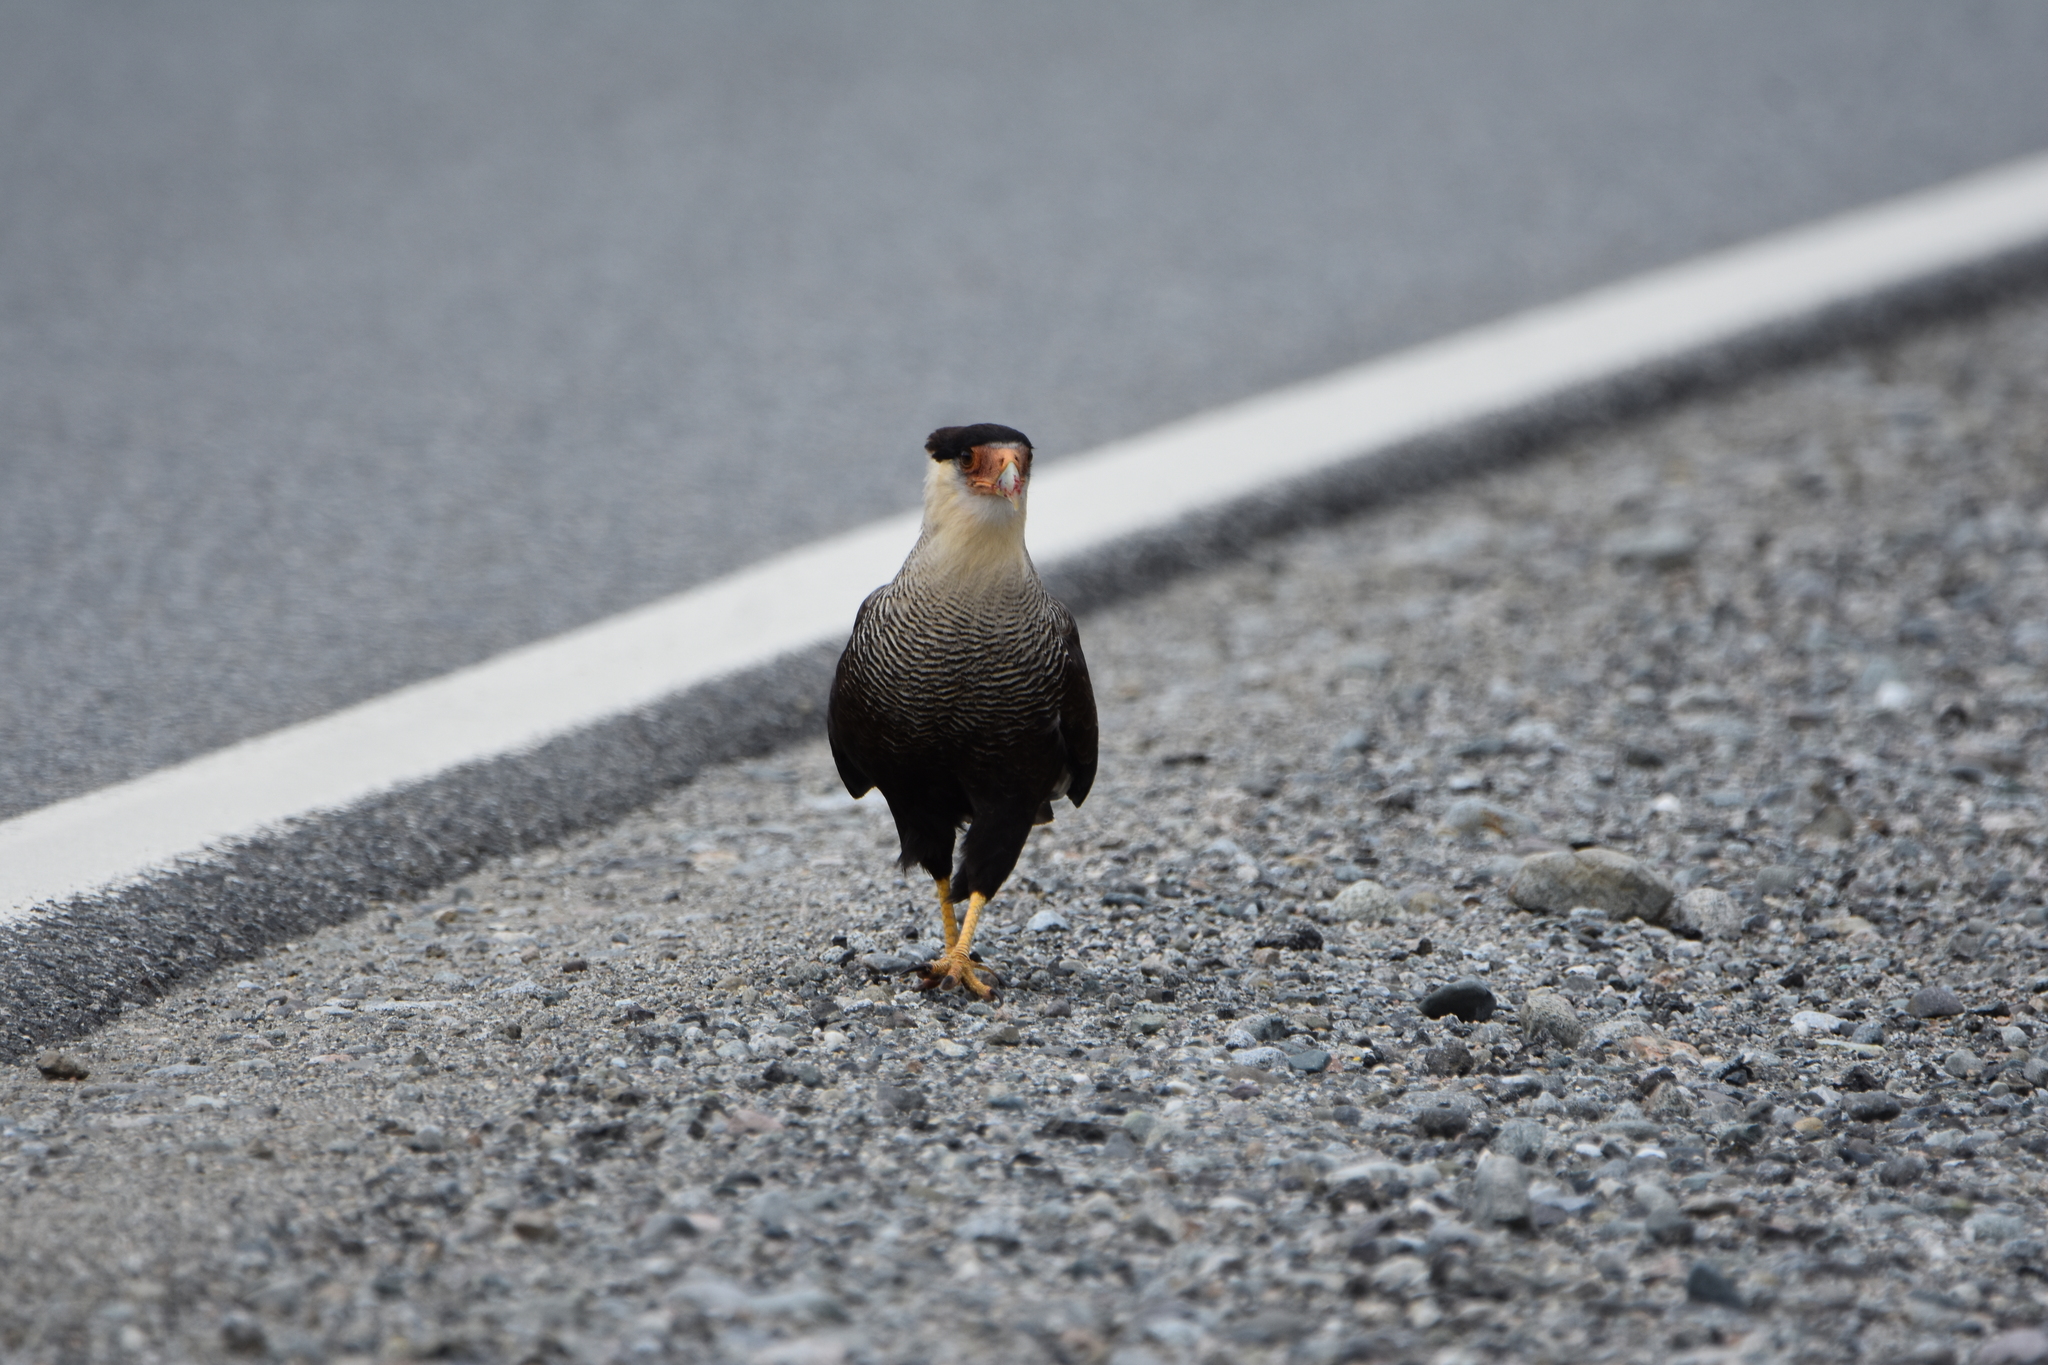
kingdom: Animalia
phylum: Chordata
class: Aves
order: Falconiformes
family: Falconidae
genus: Caracara
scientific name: Caracara plancus
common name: Southern caracara
